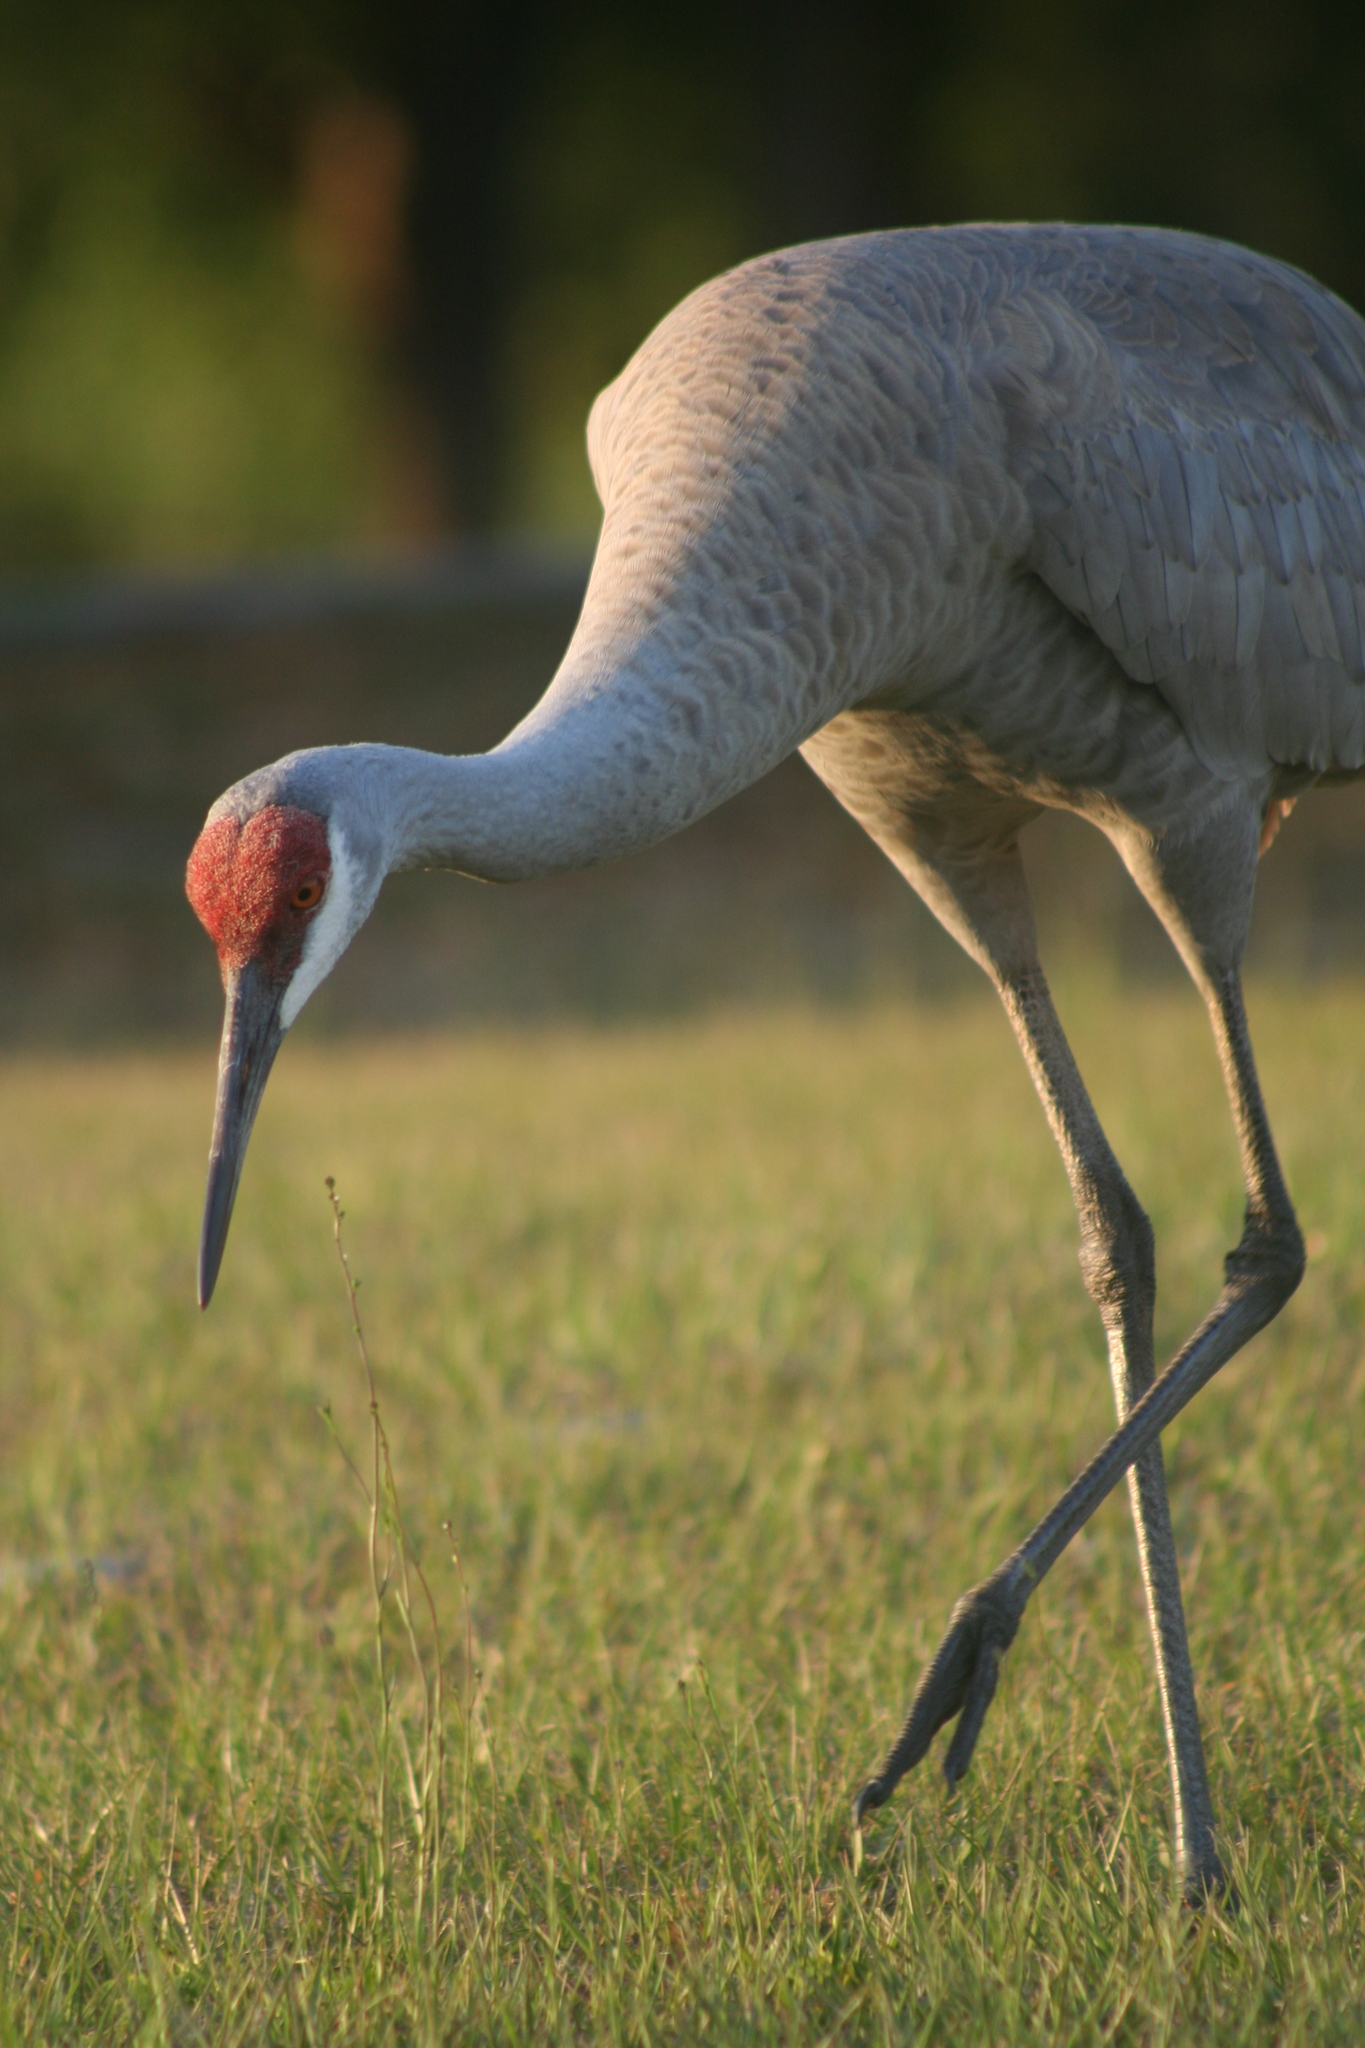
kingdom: Animalia
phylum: Chordata
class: Aves
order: Gruiformes
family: Gruidae
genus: Grus
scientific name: Grus canadensis
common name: Sandhill crane
